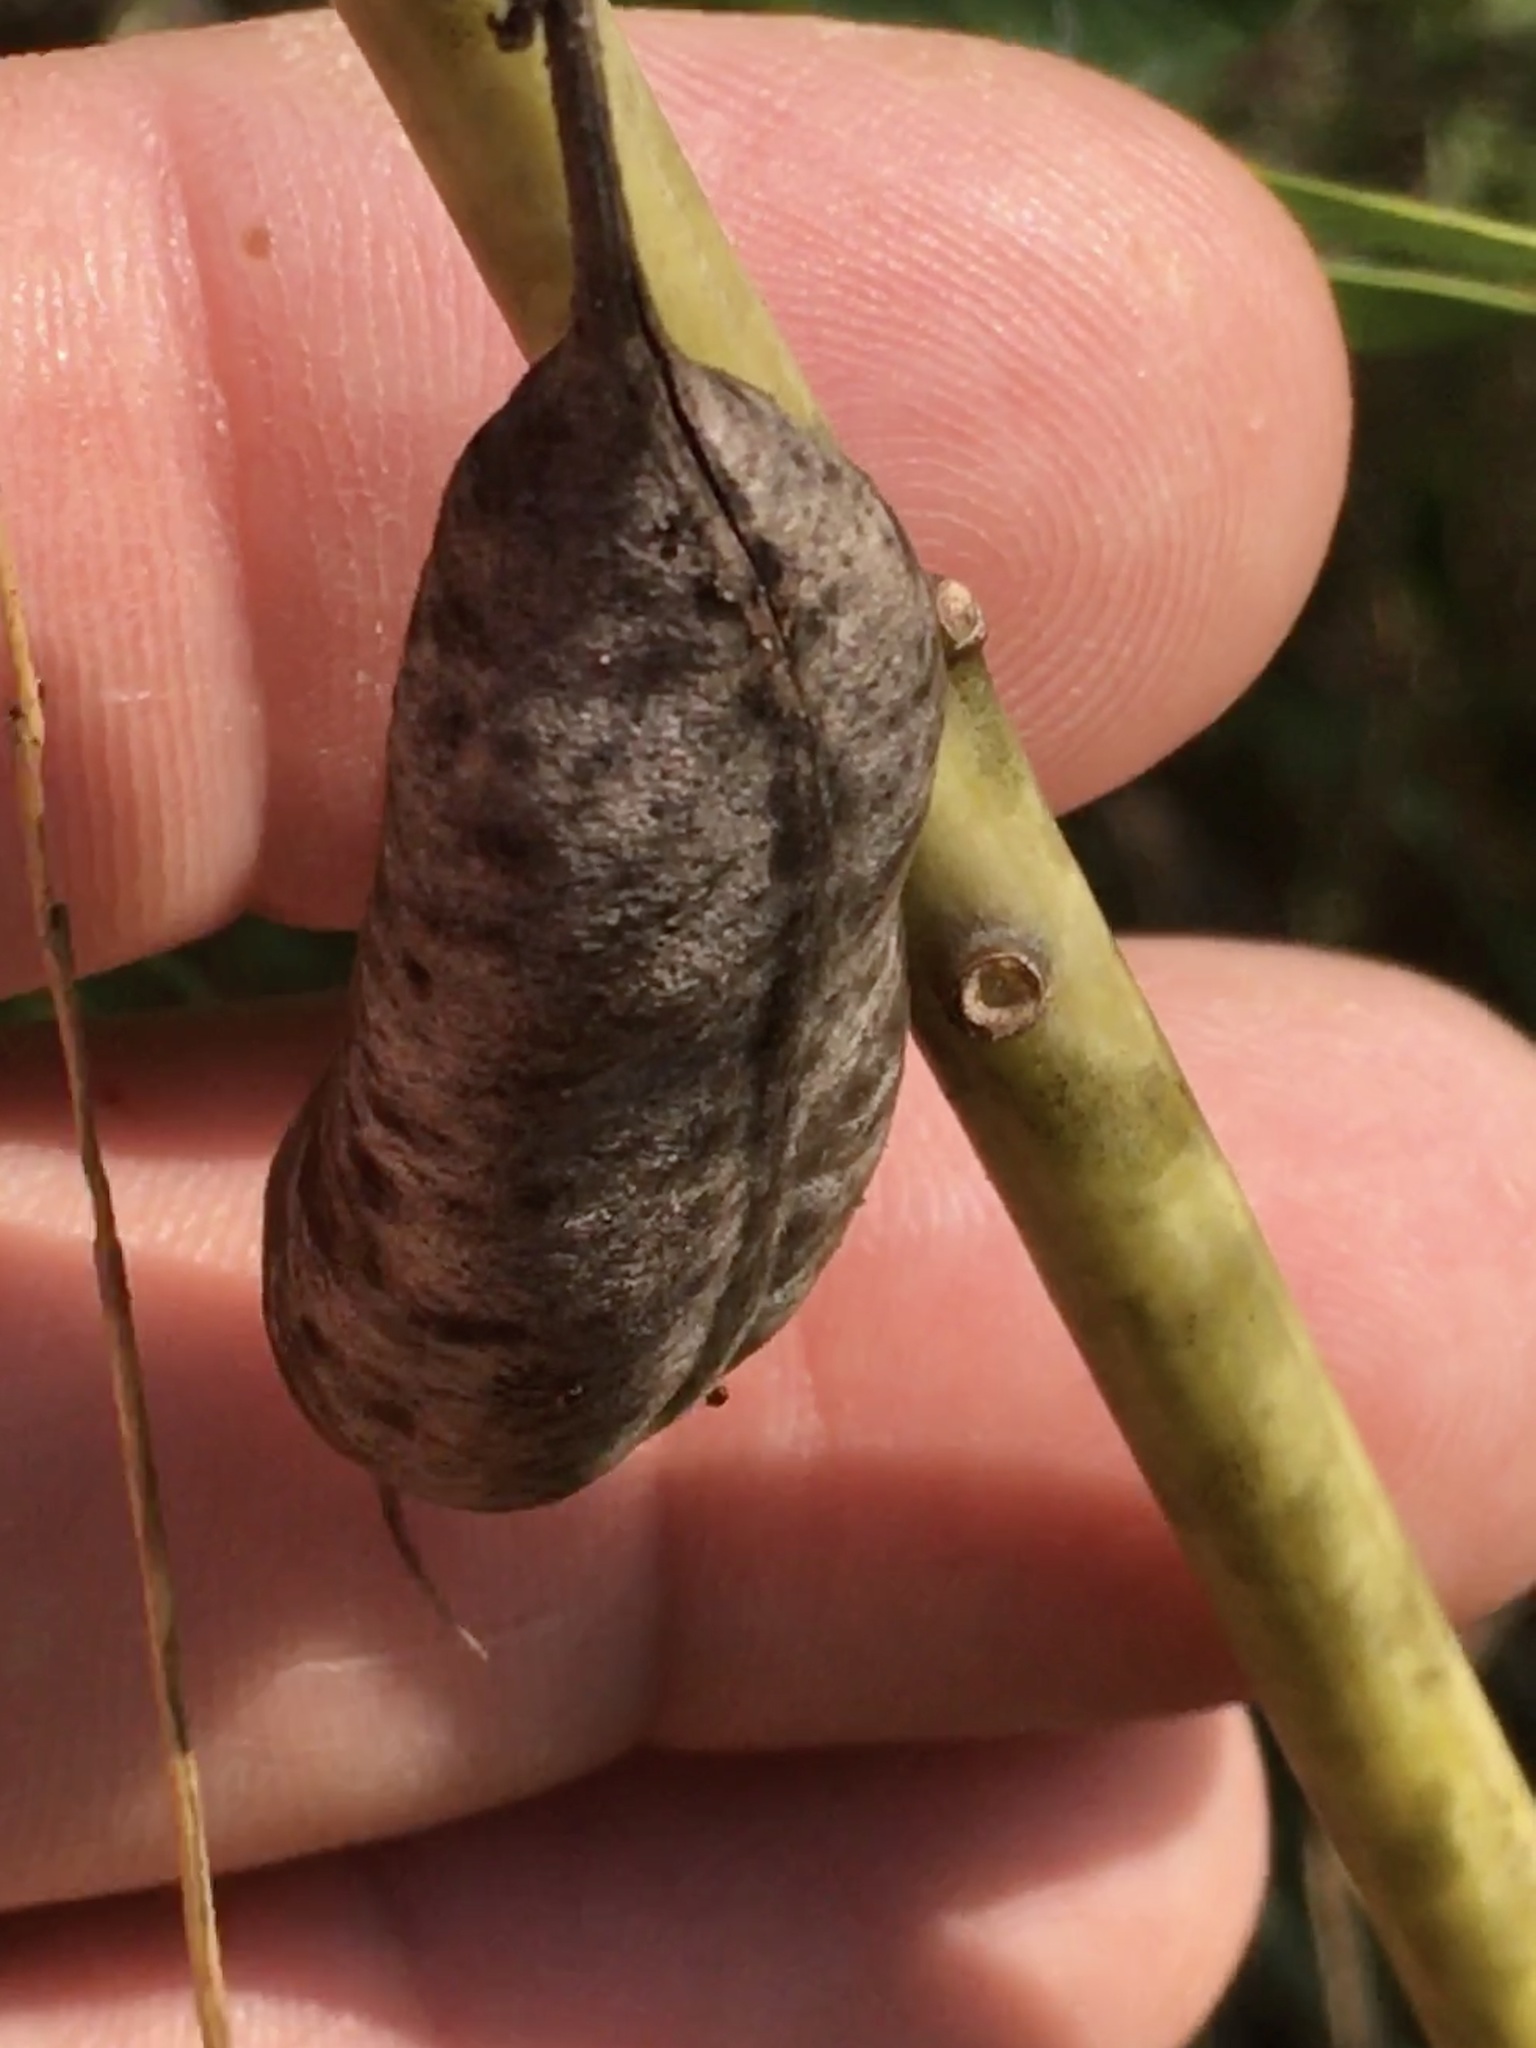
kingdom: Plantae
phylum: Tracheophyta
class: Magnoliopsida
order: Fabales
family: Fabaceae
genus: Baptisia
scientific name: Baptisia alba
